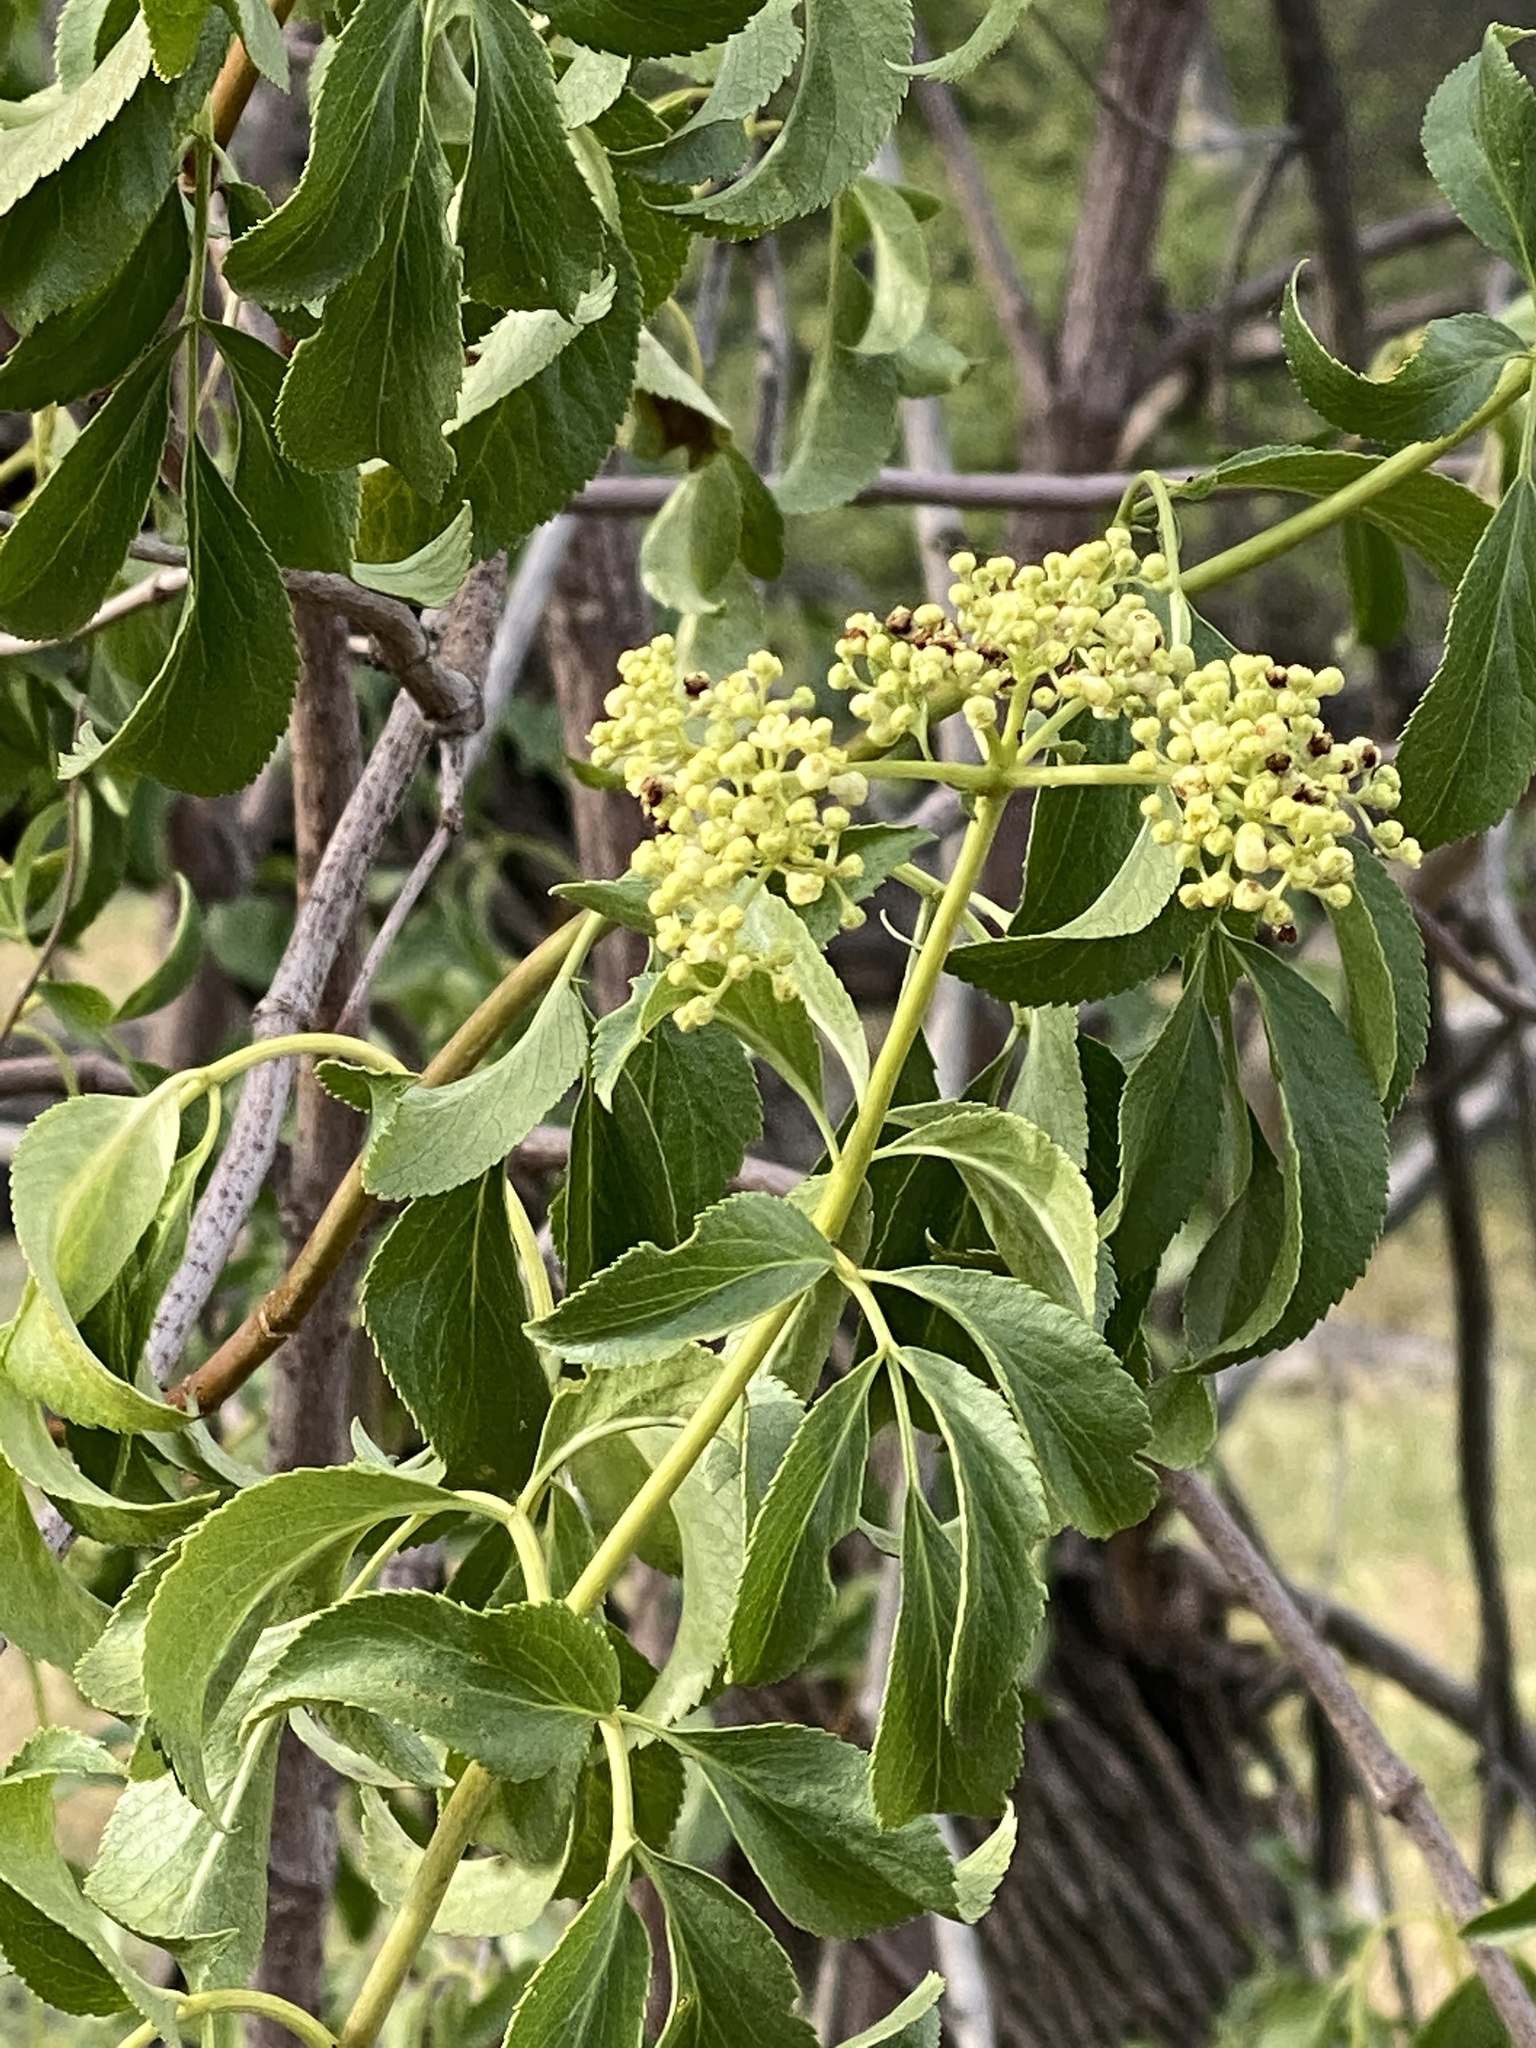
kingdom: Plantae
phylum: Tracheophyta
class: Magnoliopsida
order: Dipsacales
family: Viburnaceae
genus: Sambucus
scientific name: Sambucus cerulea
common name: Blue elder
